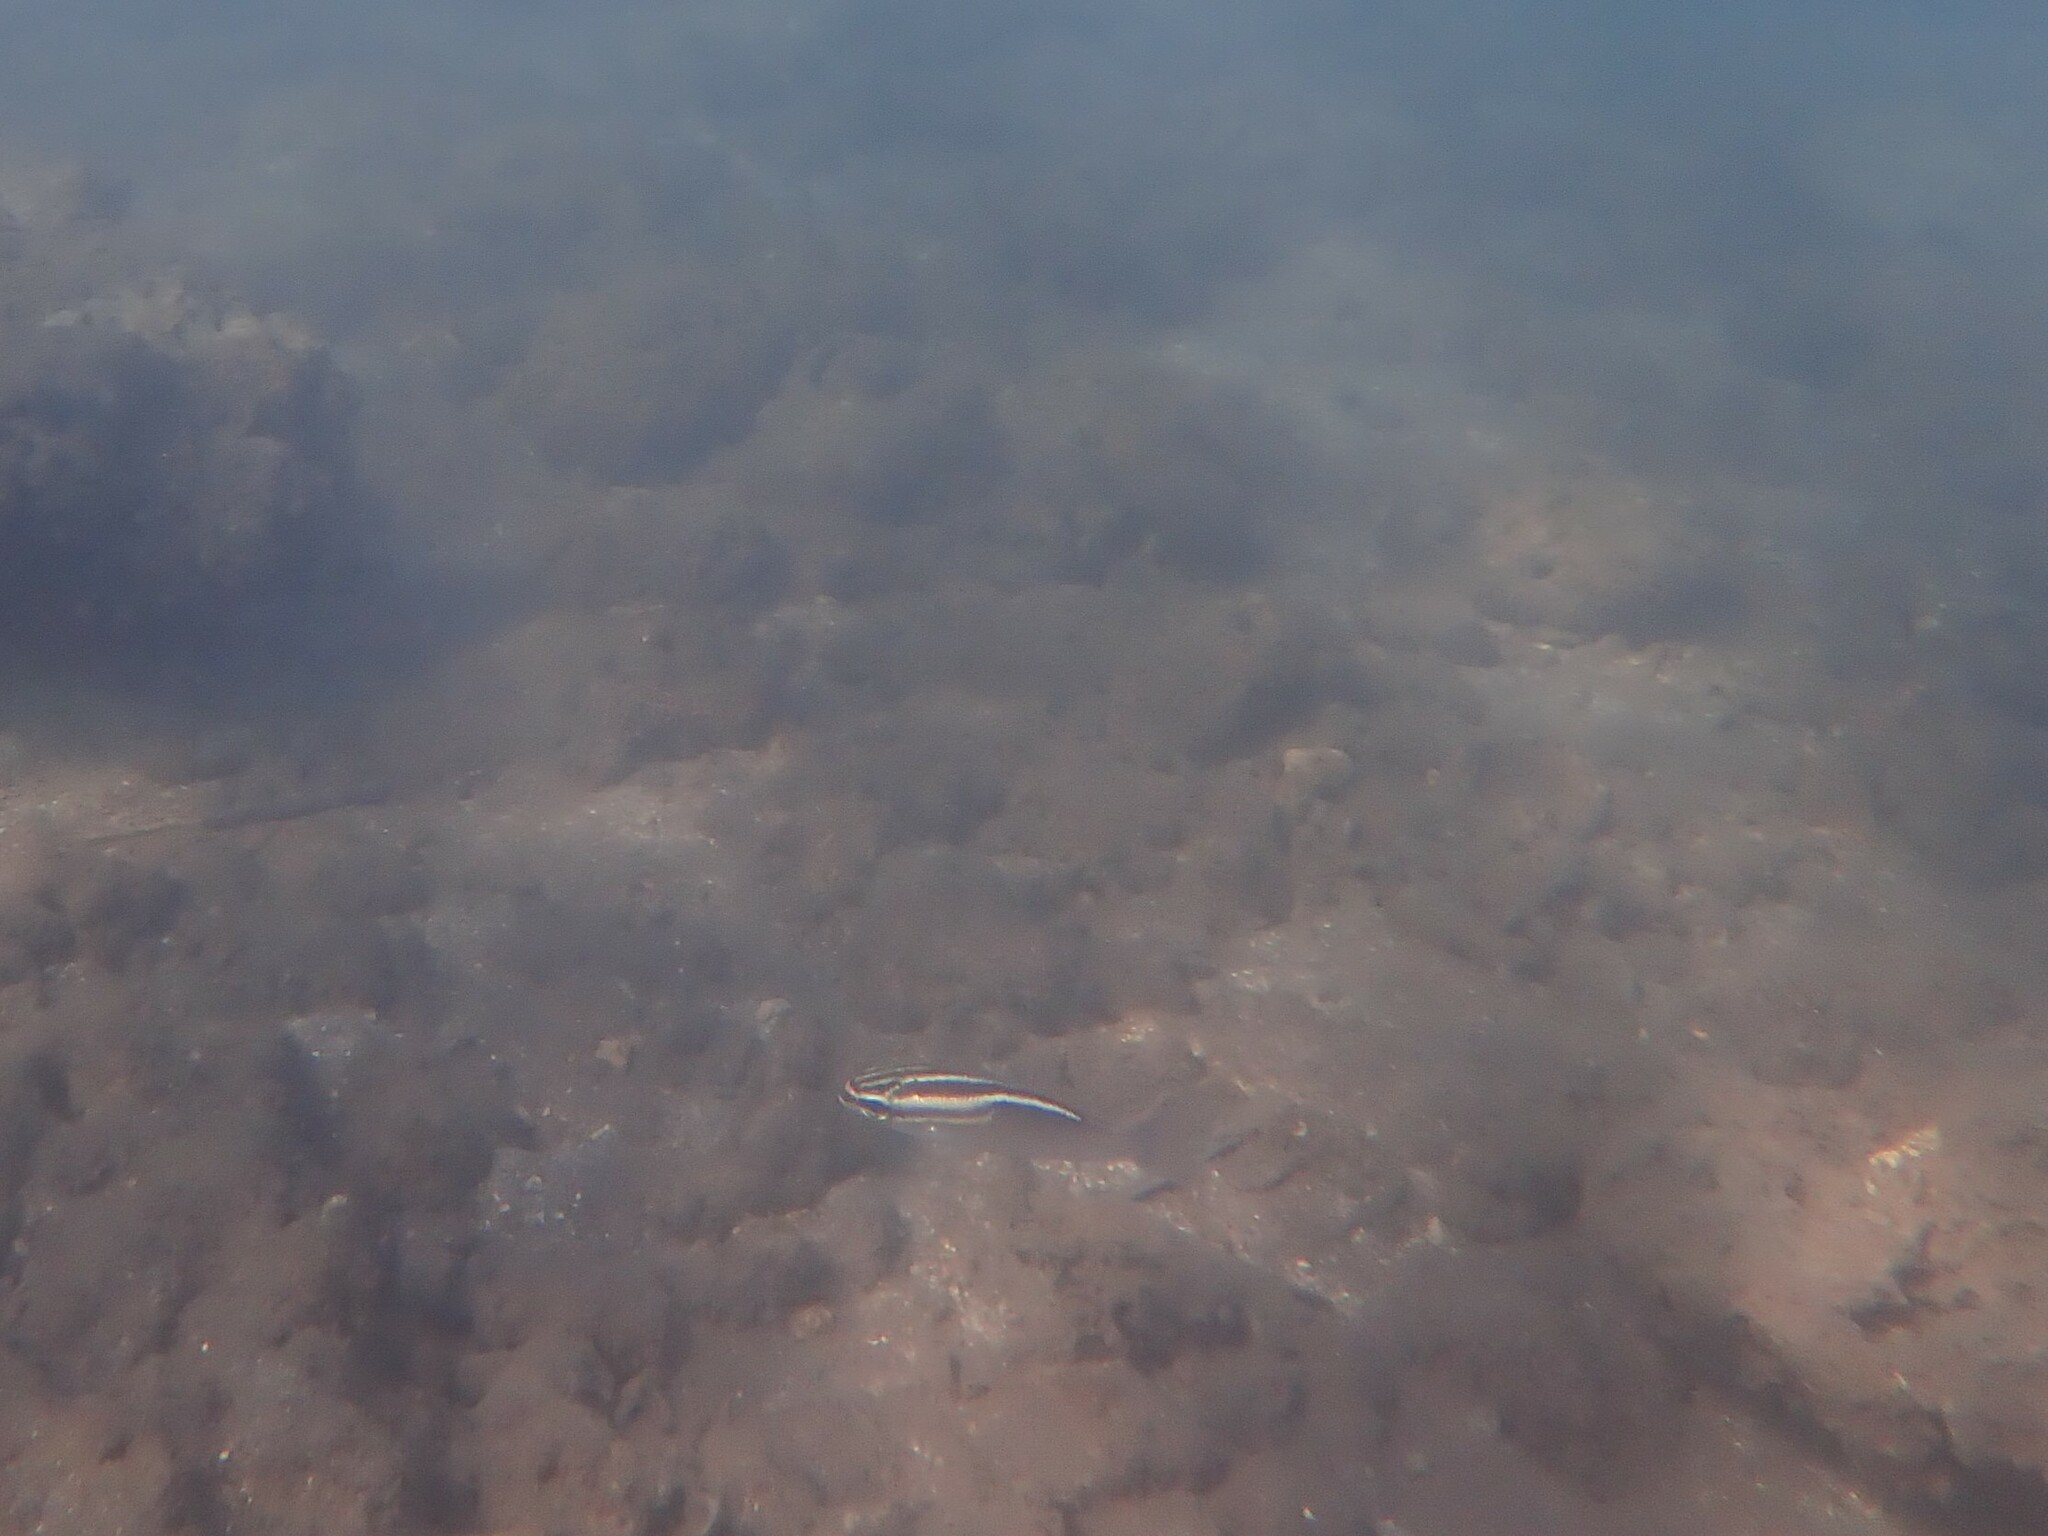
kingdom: Animalia
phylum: Chordata
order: Perciformes
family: Nemipteridae
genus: Scolopsis
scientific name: Scolopsis trilineata
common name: Three-lined monocle bream
